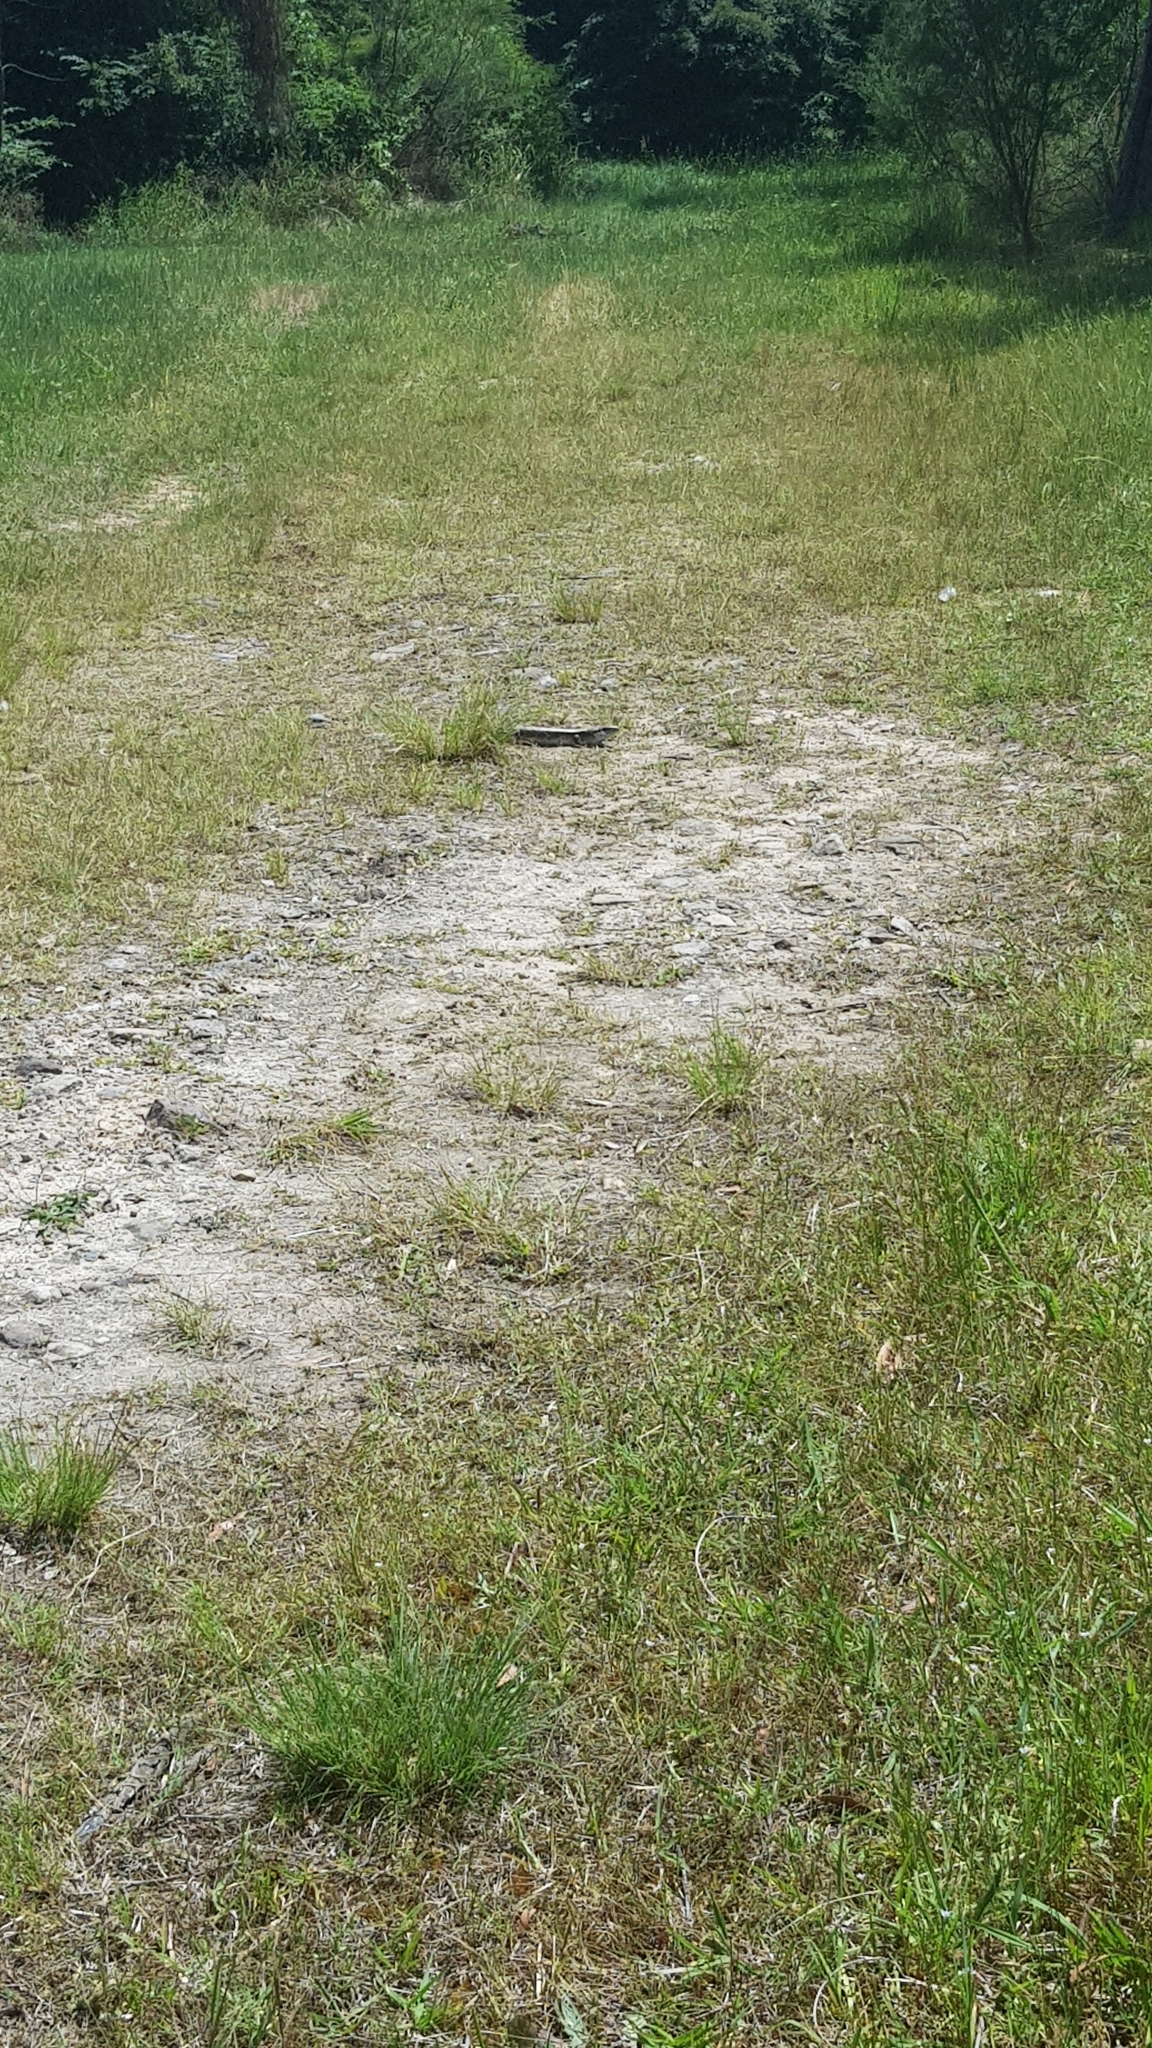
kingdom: Animalia
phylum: Chordata
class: Squamata
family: Scincidae
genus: Tiliqua
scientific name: Tiliqua scincoides
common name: Common bluetongue
